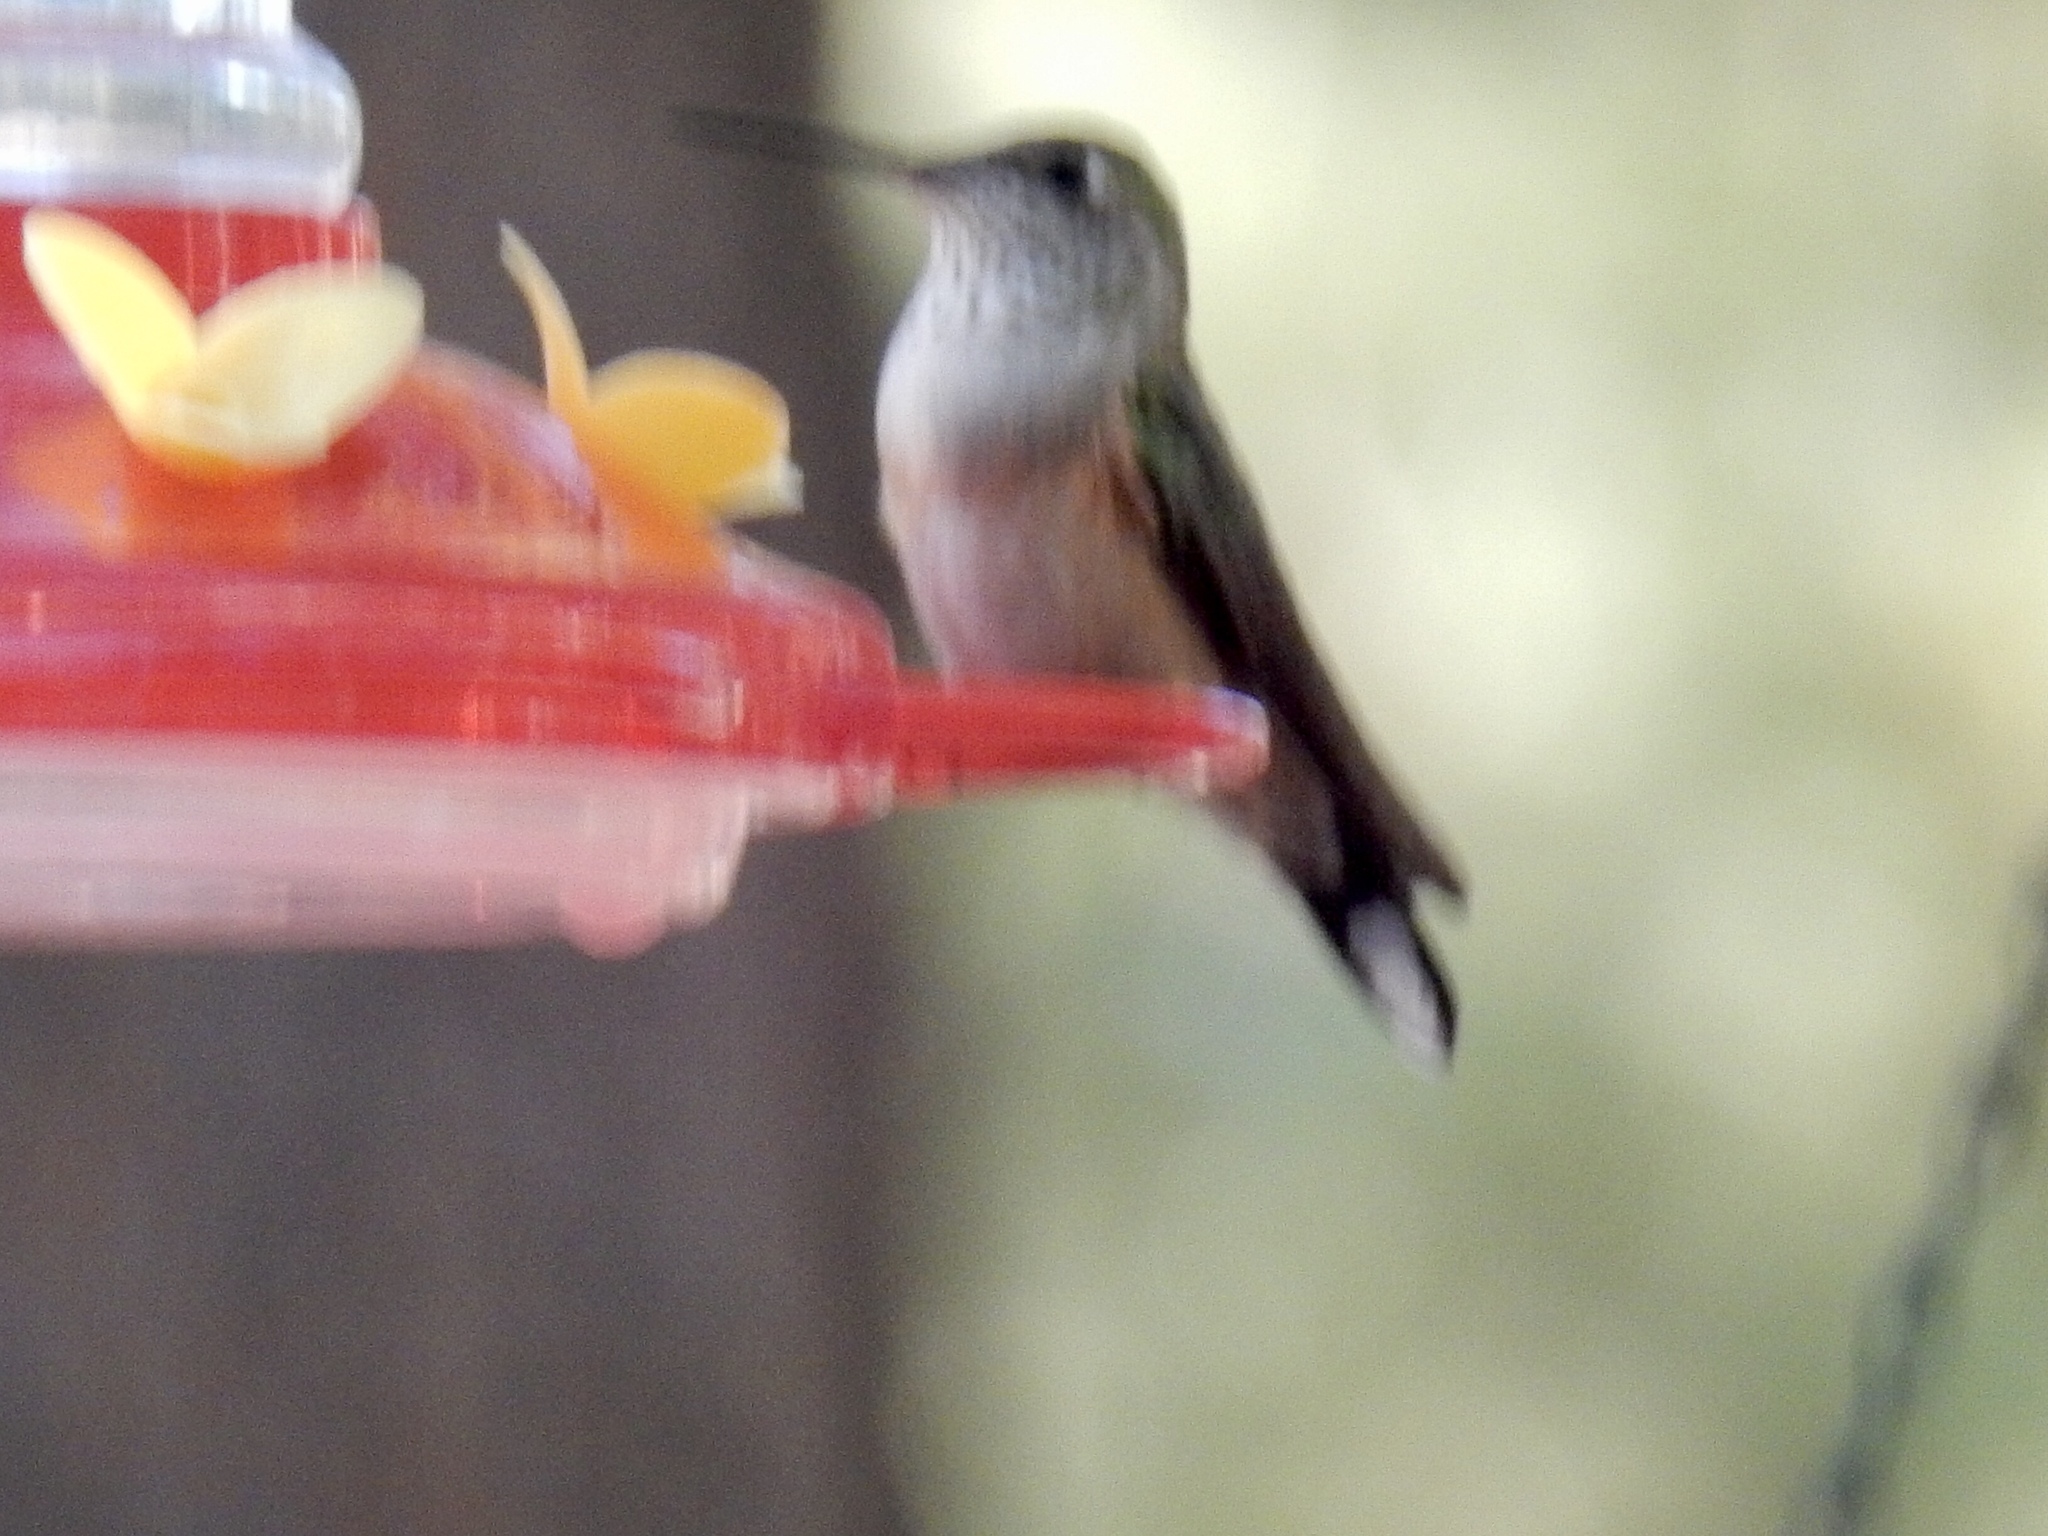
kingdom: Animalia
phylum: Chordata
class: Aves
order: Apodiformes
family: Trochilidae
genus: Selasphorus
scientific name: Selasphorus platycercus
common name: Broad-tailed hummingbird
